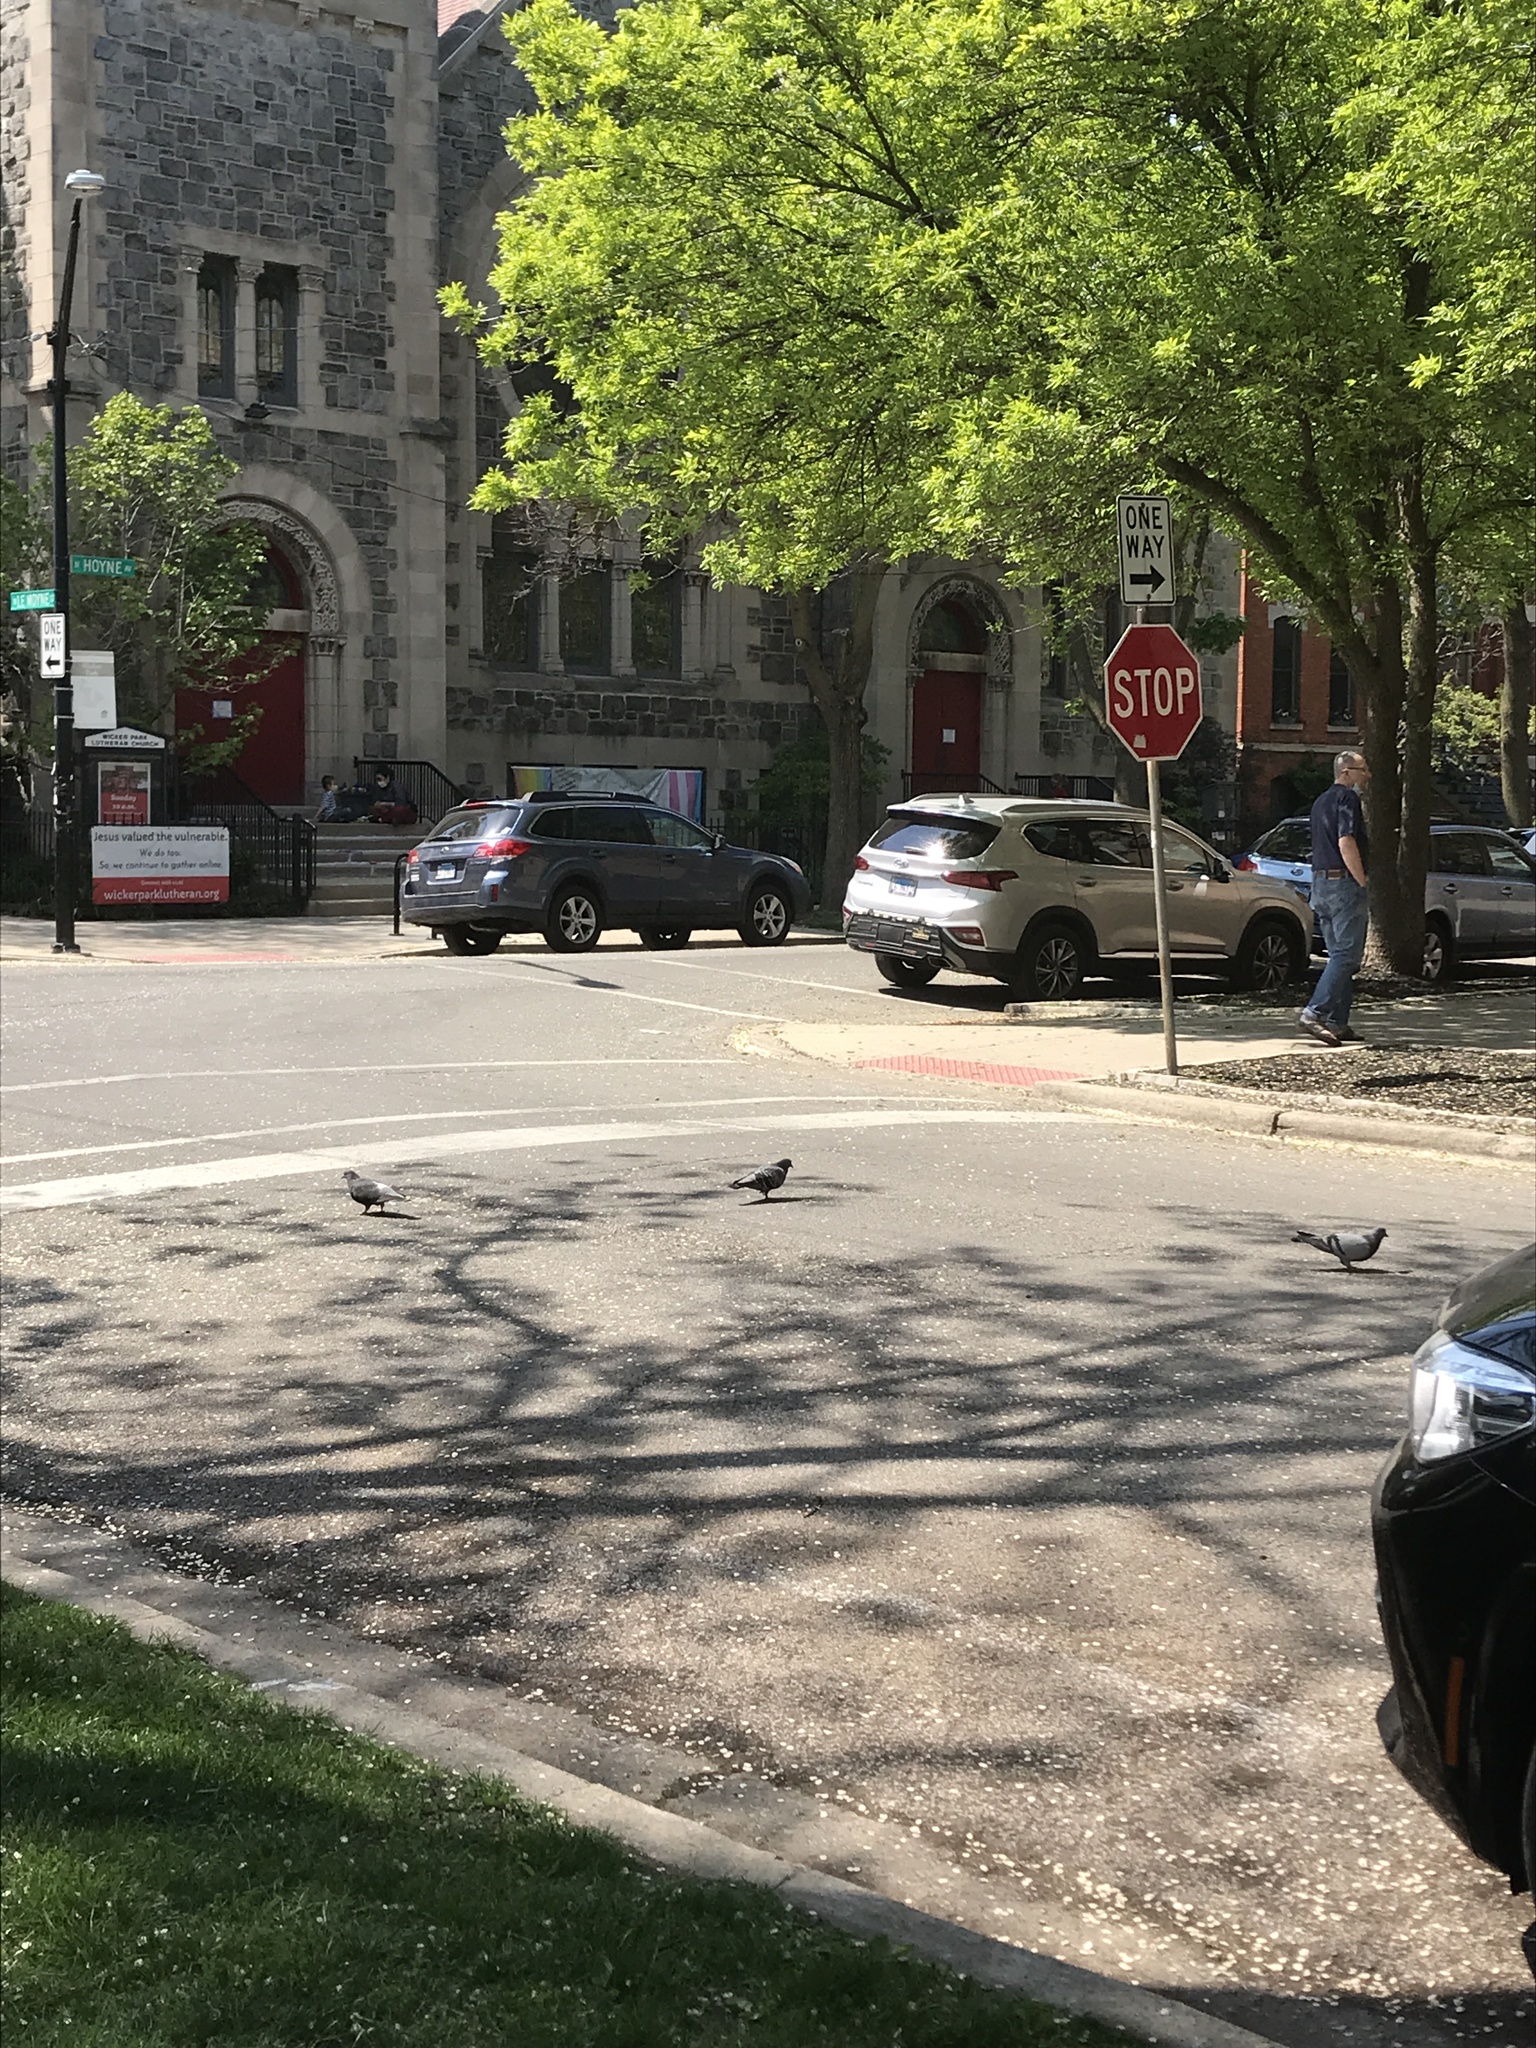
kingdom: Animalia
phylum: Chordata
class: Aves
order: Columbiformes
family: Columbidae
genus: Columba
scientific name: Columba livia
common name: Rock pigeon
